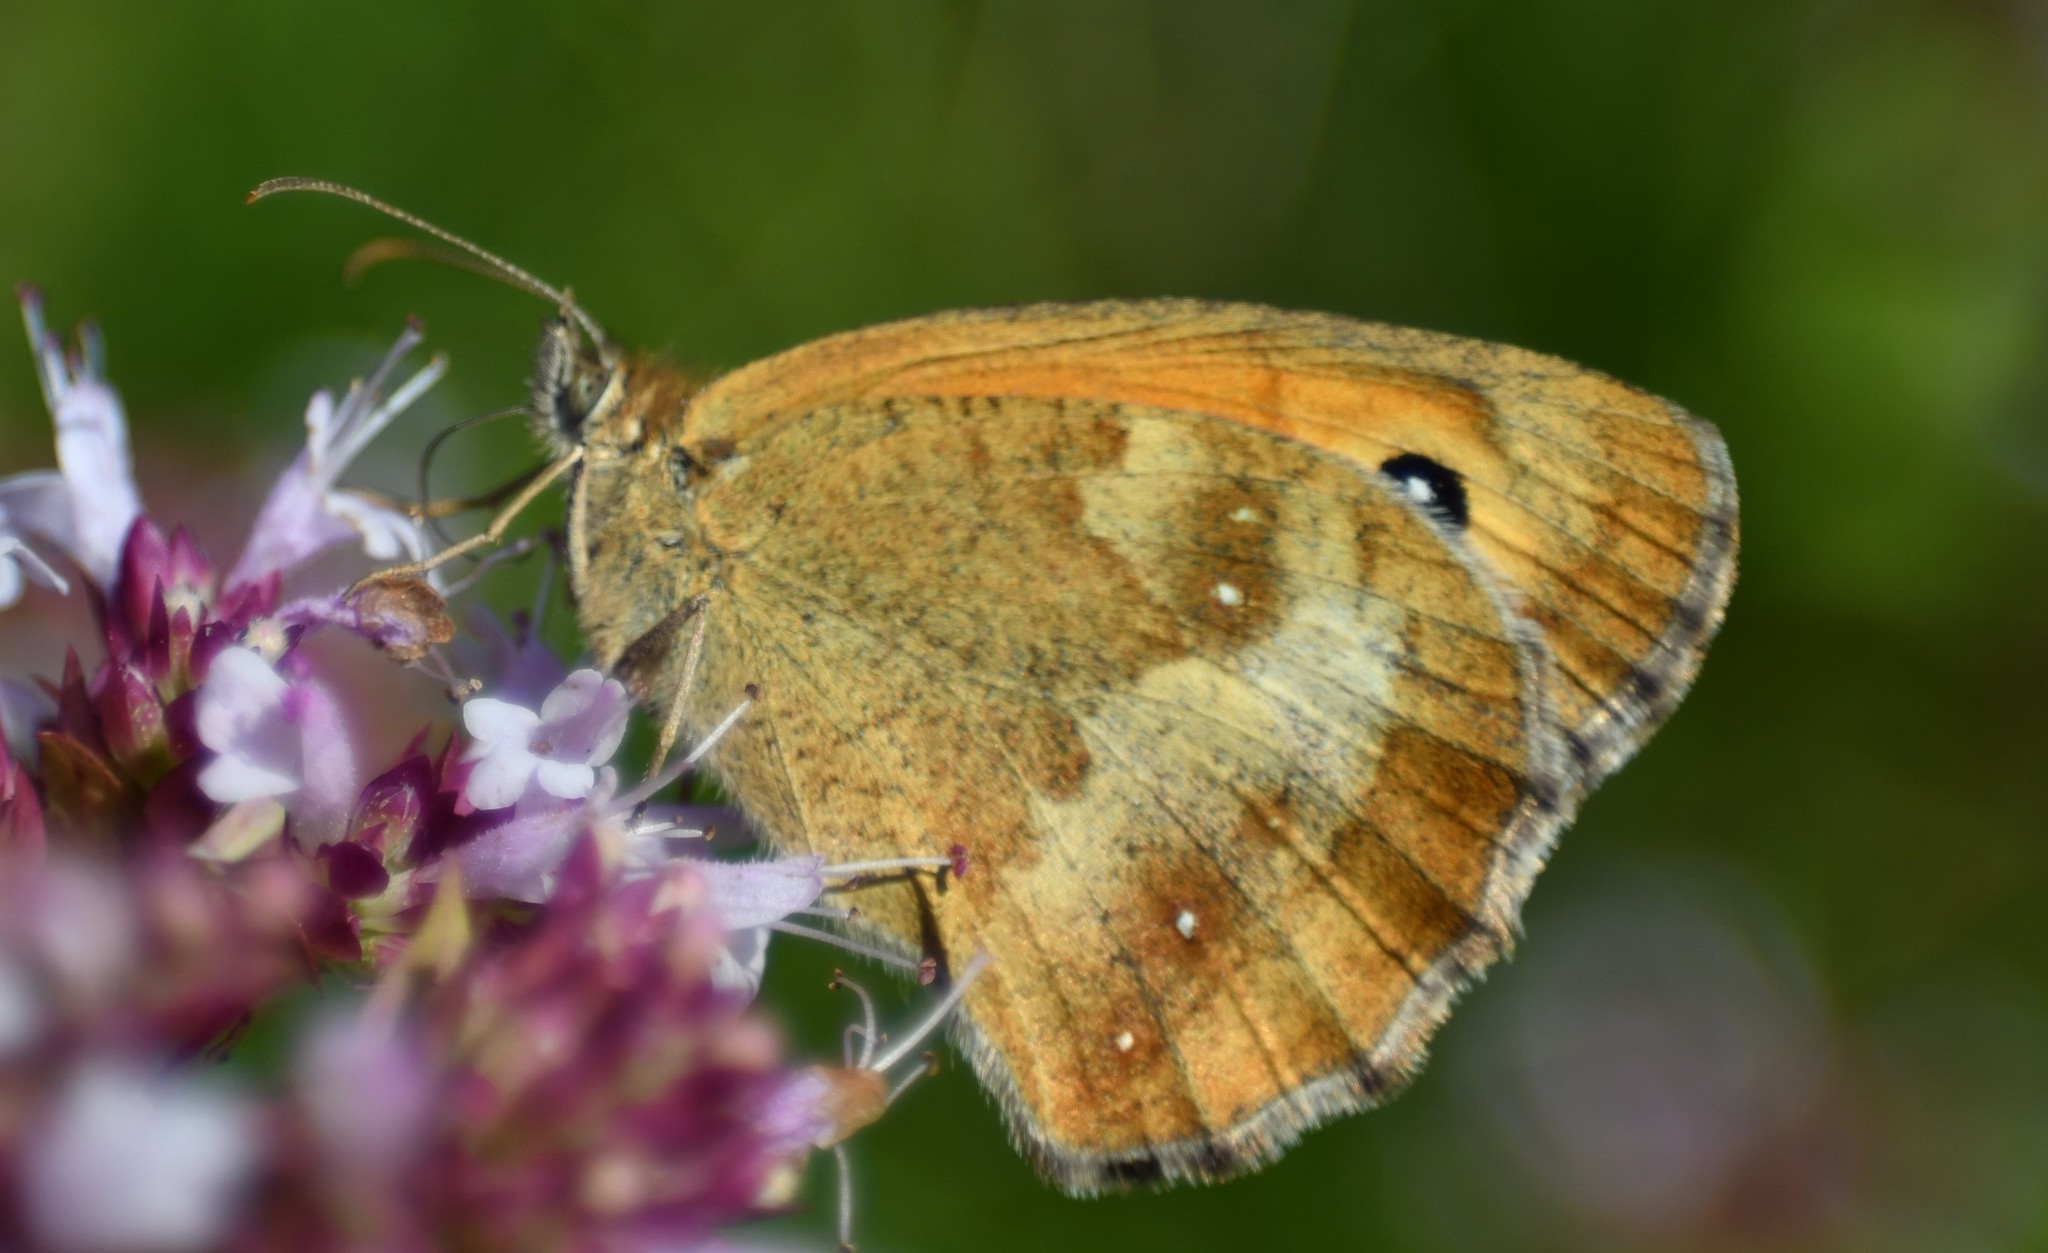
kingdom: Animalia
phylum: Arthropoda
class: Insecta
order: Lepidoptera
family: Nymphalidae
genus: Pyronia
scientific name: Pyronia tithonus
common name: Gatekeeper
